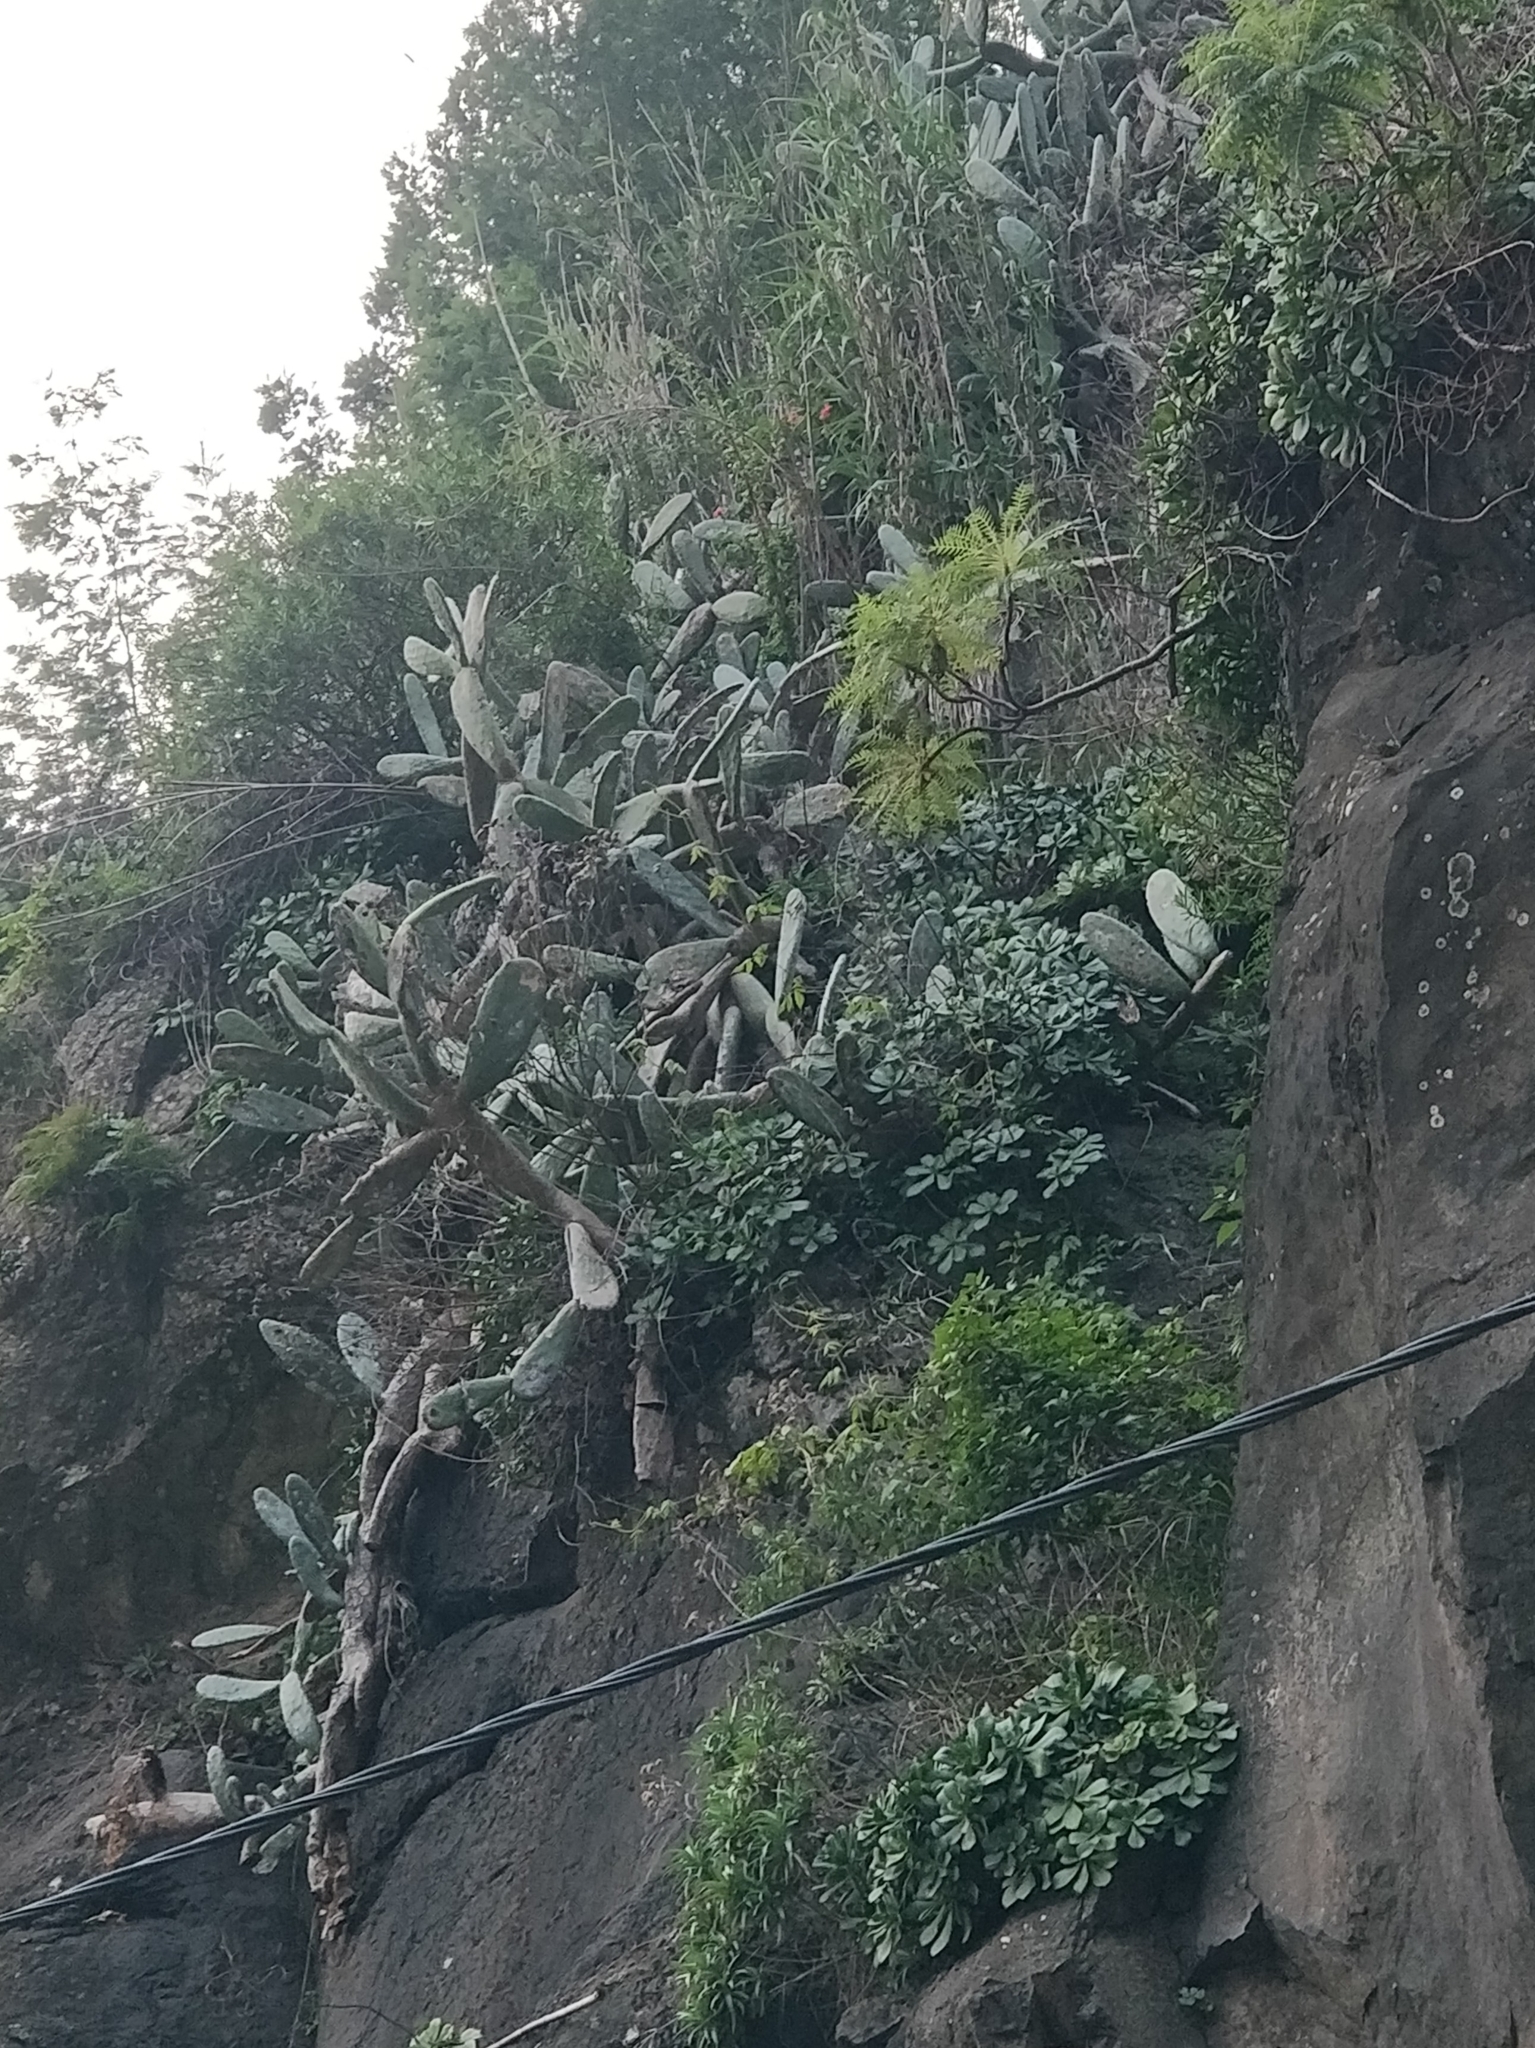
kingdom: Plantae
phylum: Tracheophyta
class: Magnoliopsida
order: Caryophyllales
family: Cactaceae
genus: Opuntia
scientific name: Opuntia ficus-indica
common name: Barbary fig
